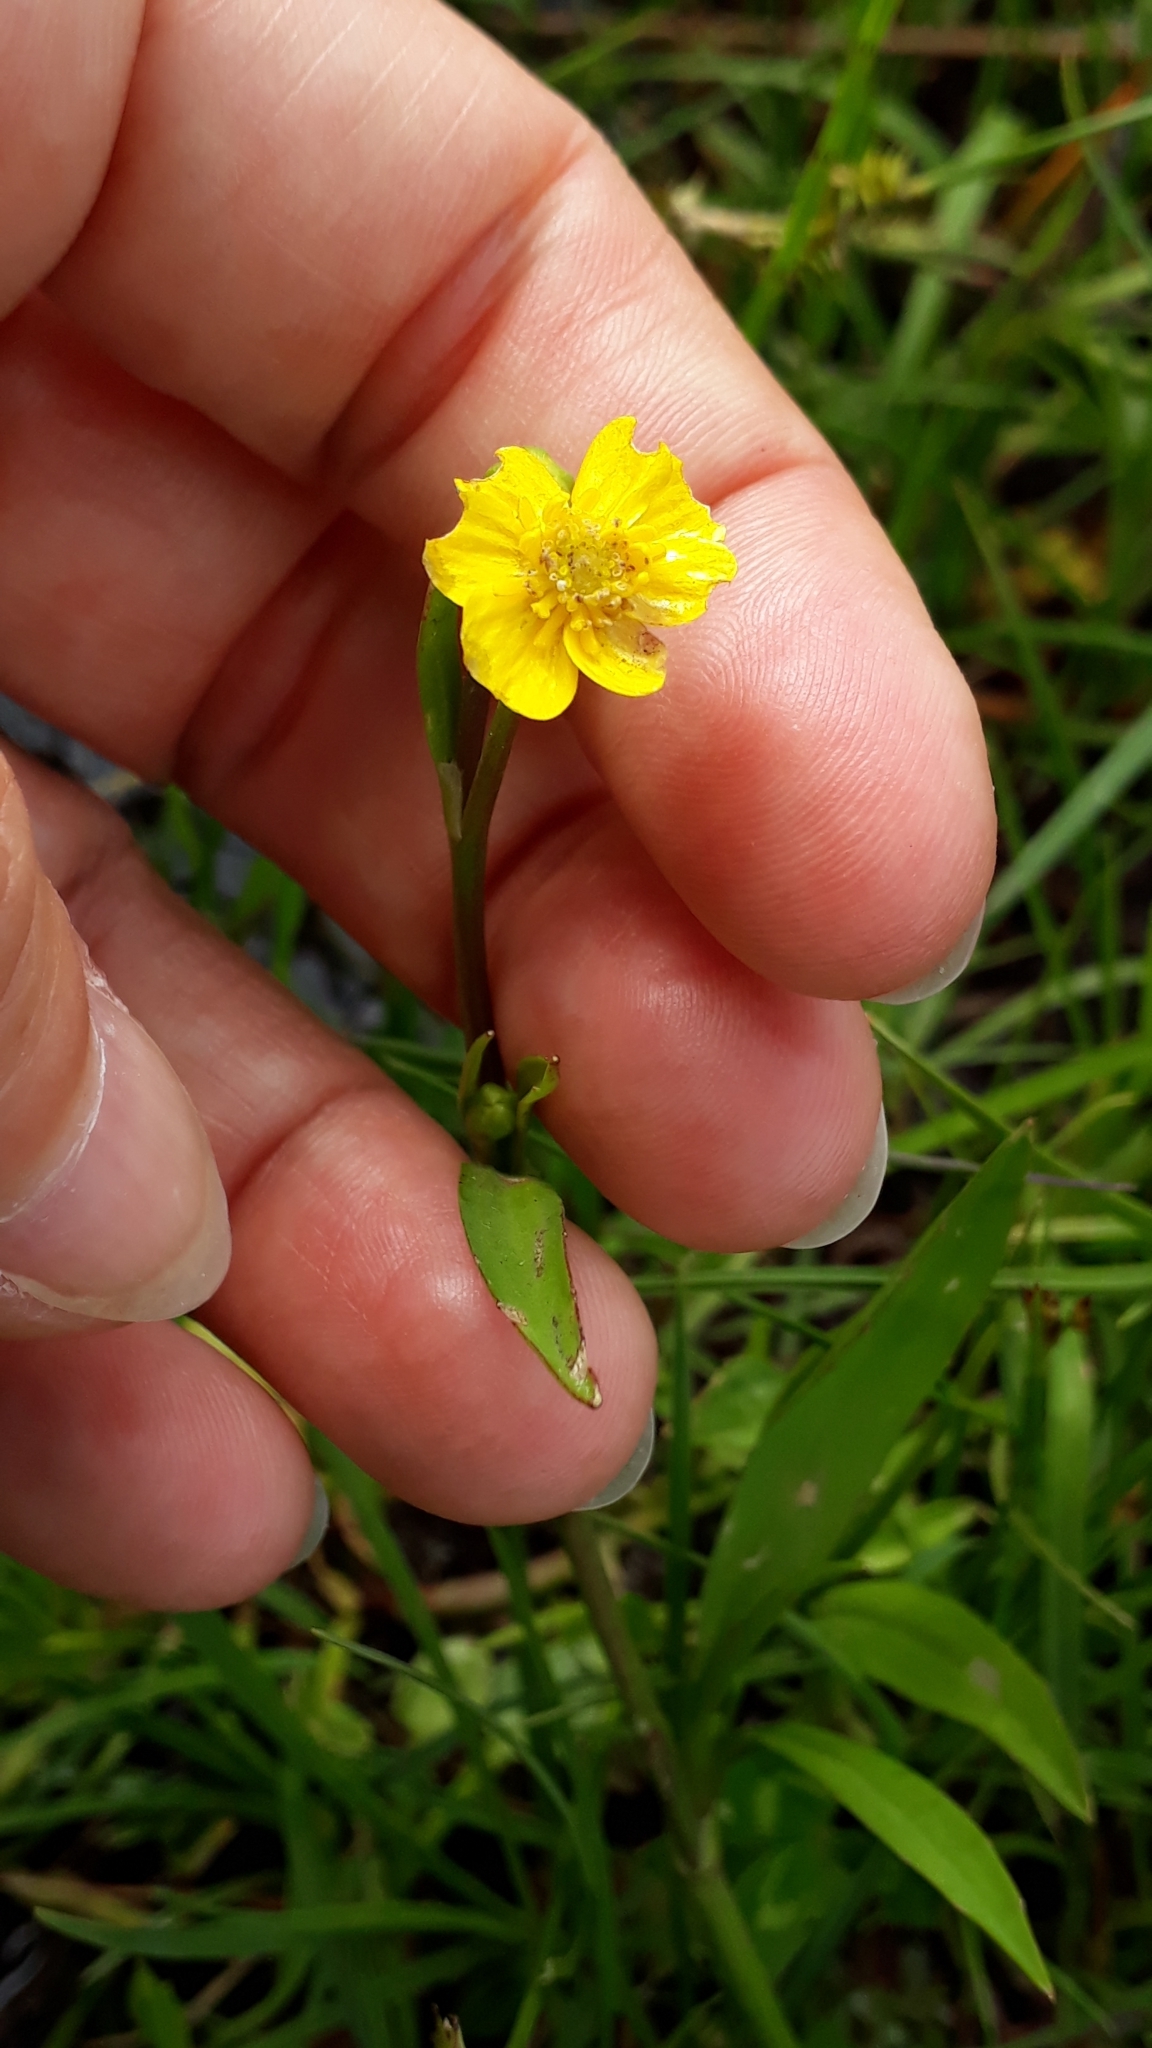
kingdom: Plantae
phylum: Tracheophyta
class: Magnoliopsida
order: Ranunculales
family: Ranunculaceae
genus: Ranunculus
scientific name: Ranunculus flammula
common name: Lesser spearwort
